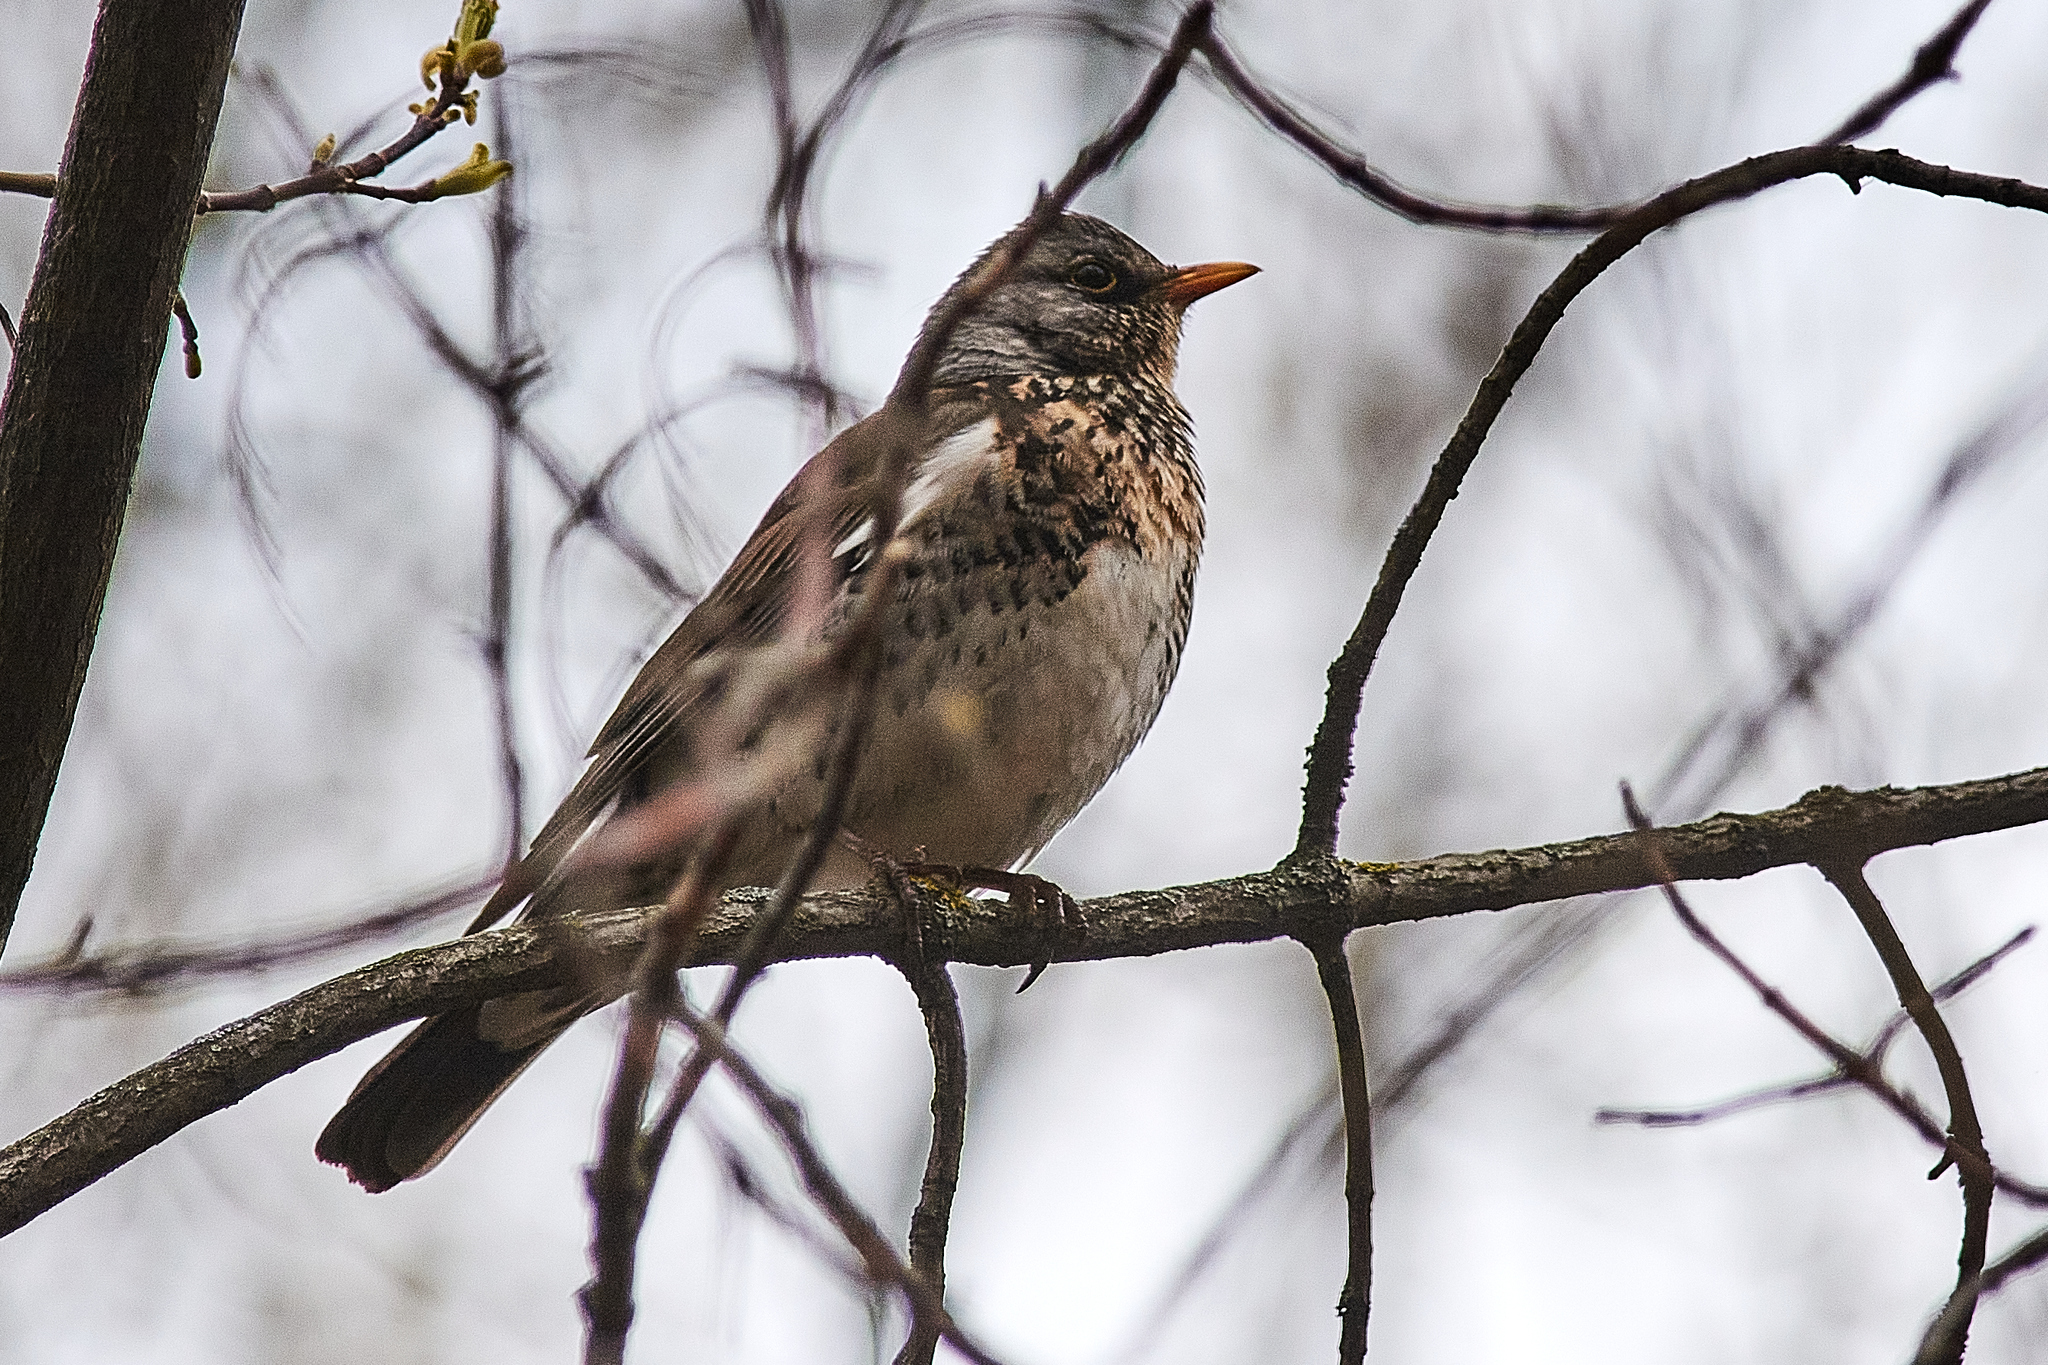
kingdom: Animalia
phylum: Chordata
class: Aves
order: Passeriformes
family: Turdidae
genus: Turdus
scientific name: Turdus pilaris
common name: Fieldfare
